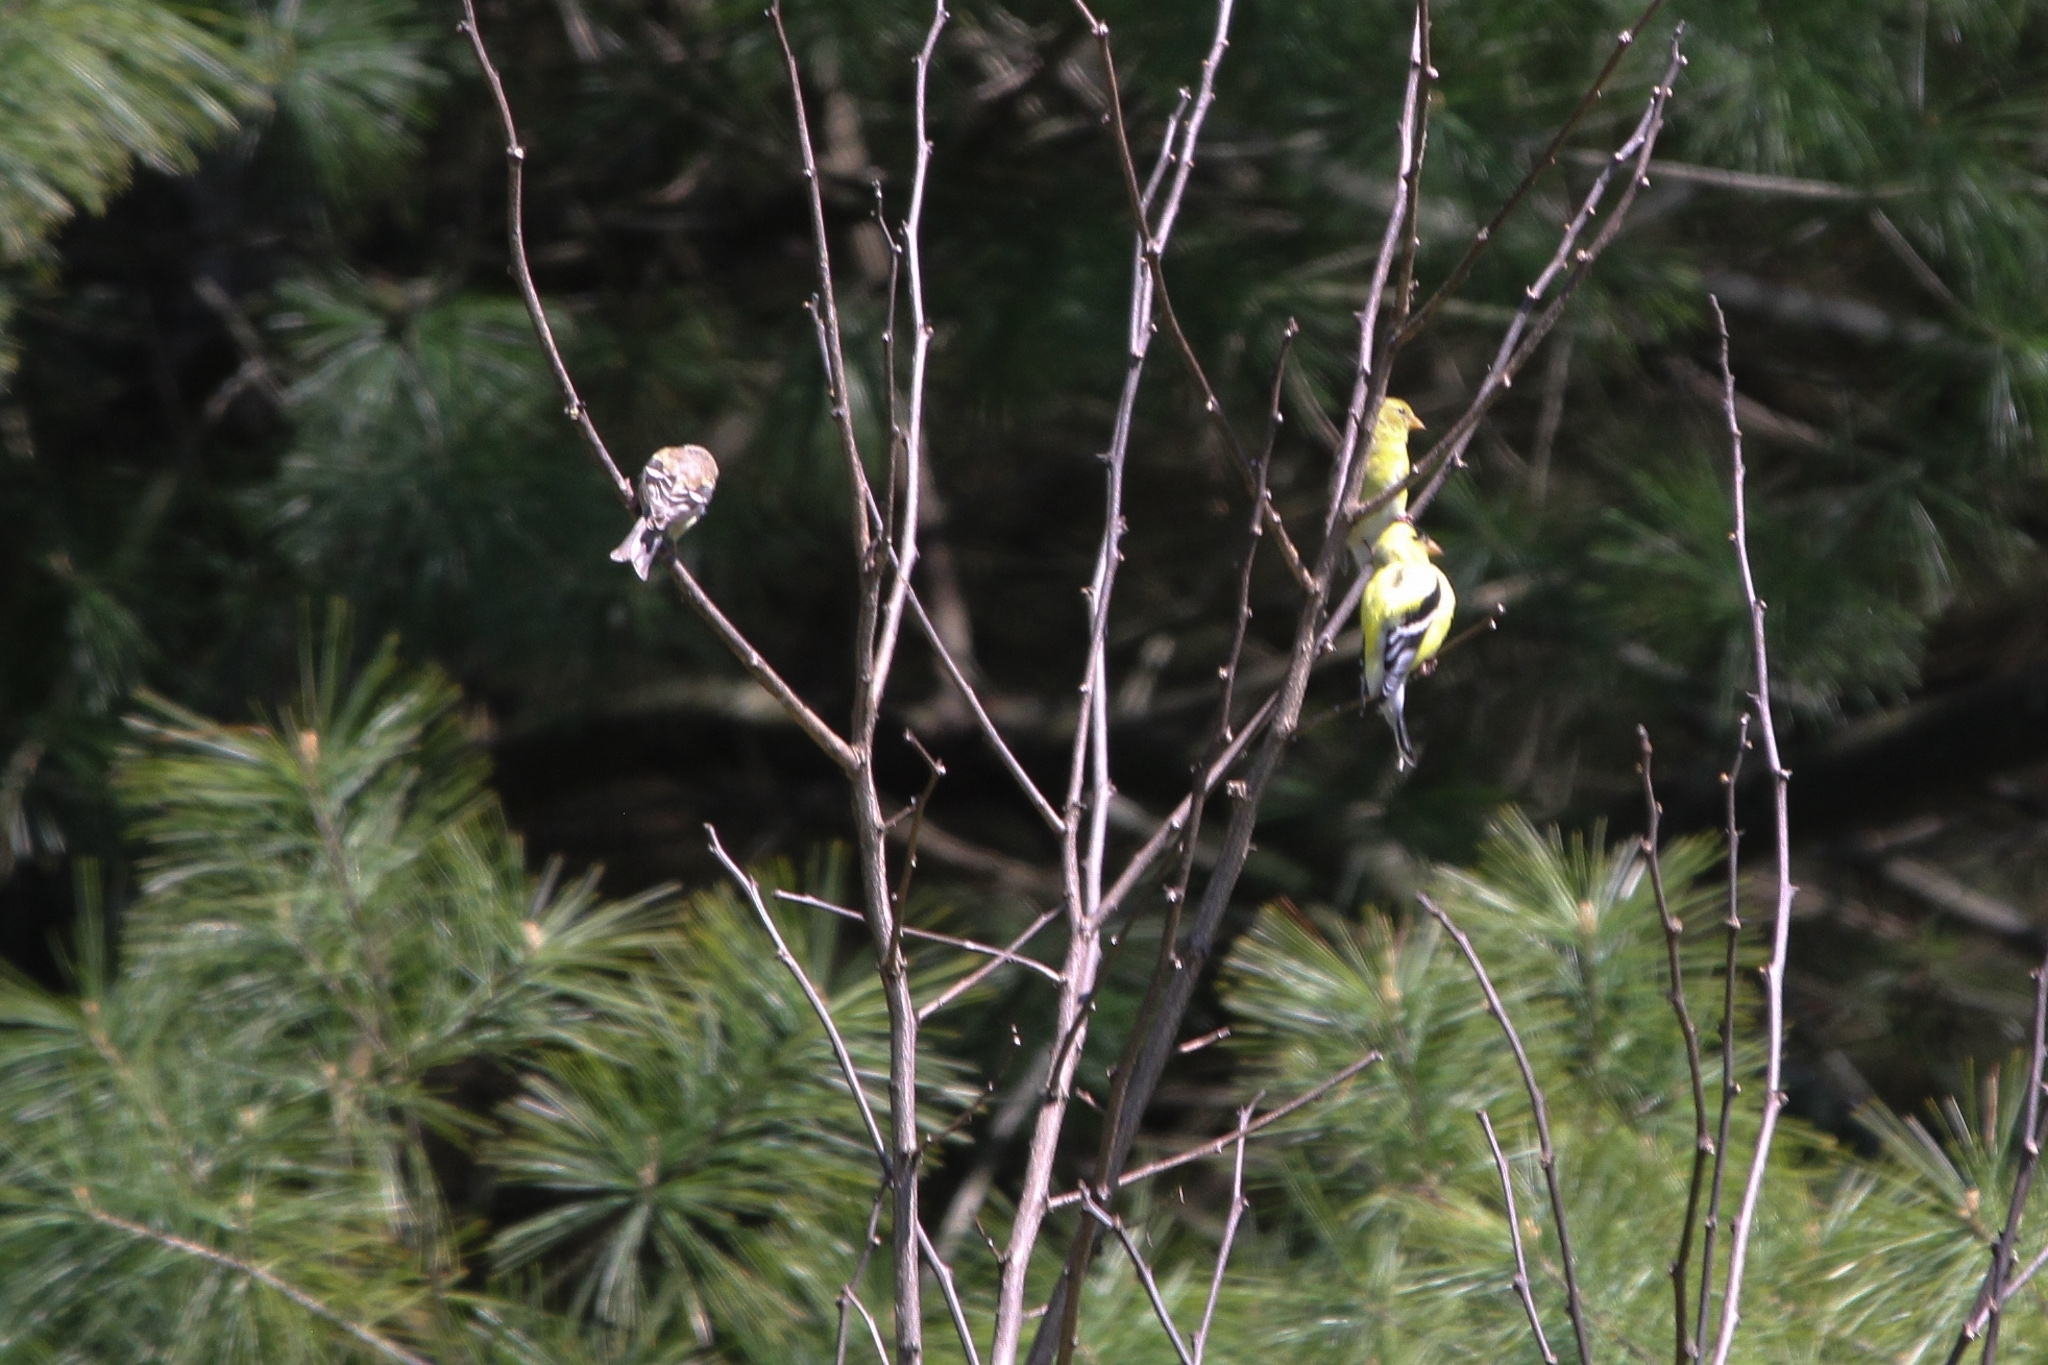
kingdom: Animalia
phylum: Chordata
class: Aves
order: Passeriformes
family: Fringillidae
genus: Spinus
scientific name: Spinus tristis
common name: American goldfinch
